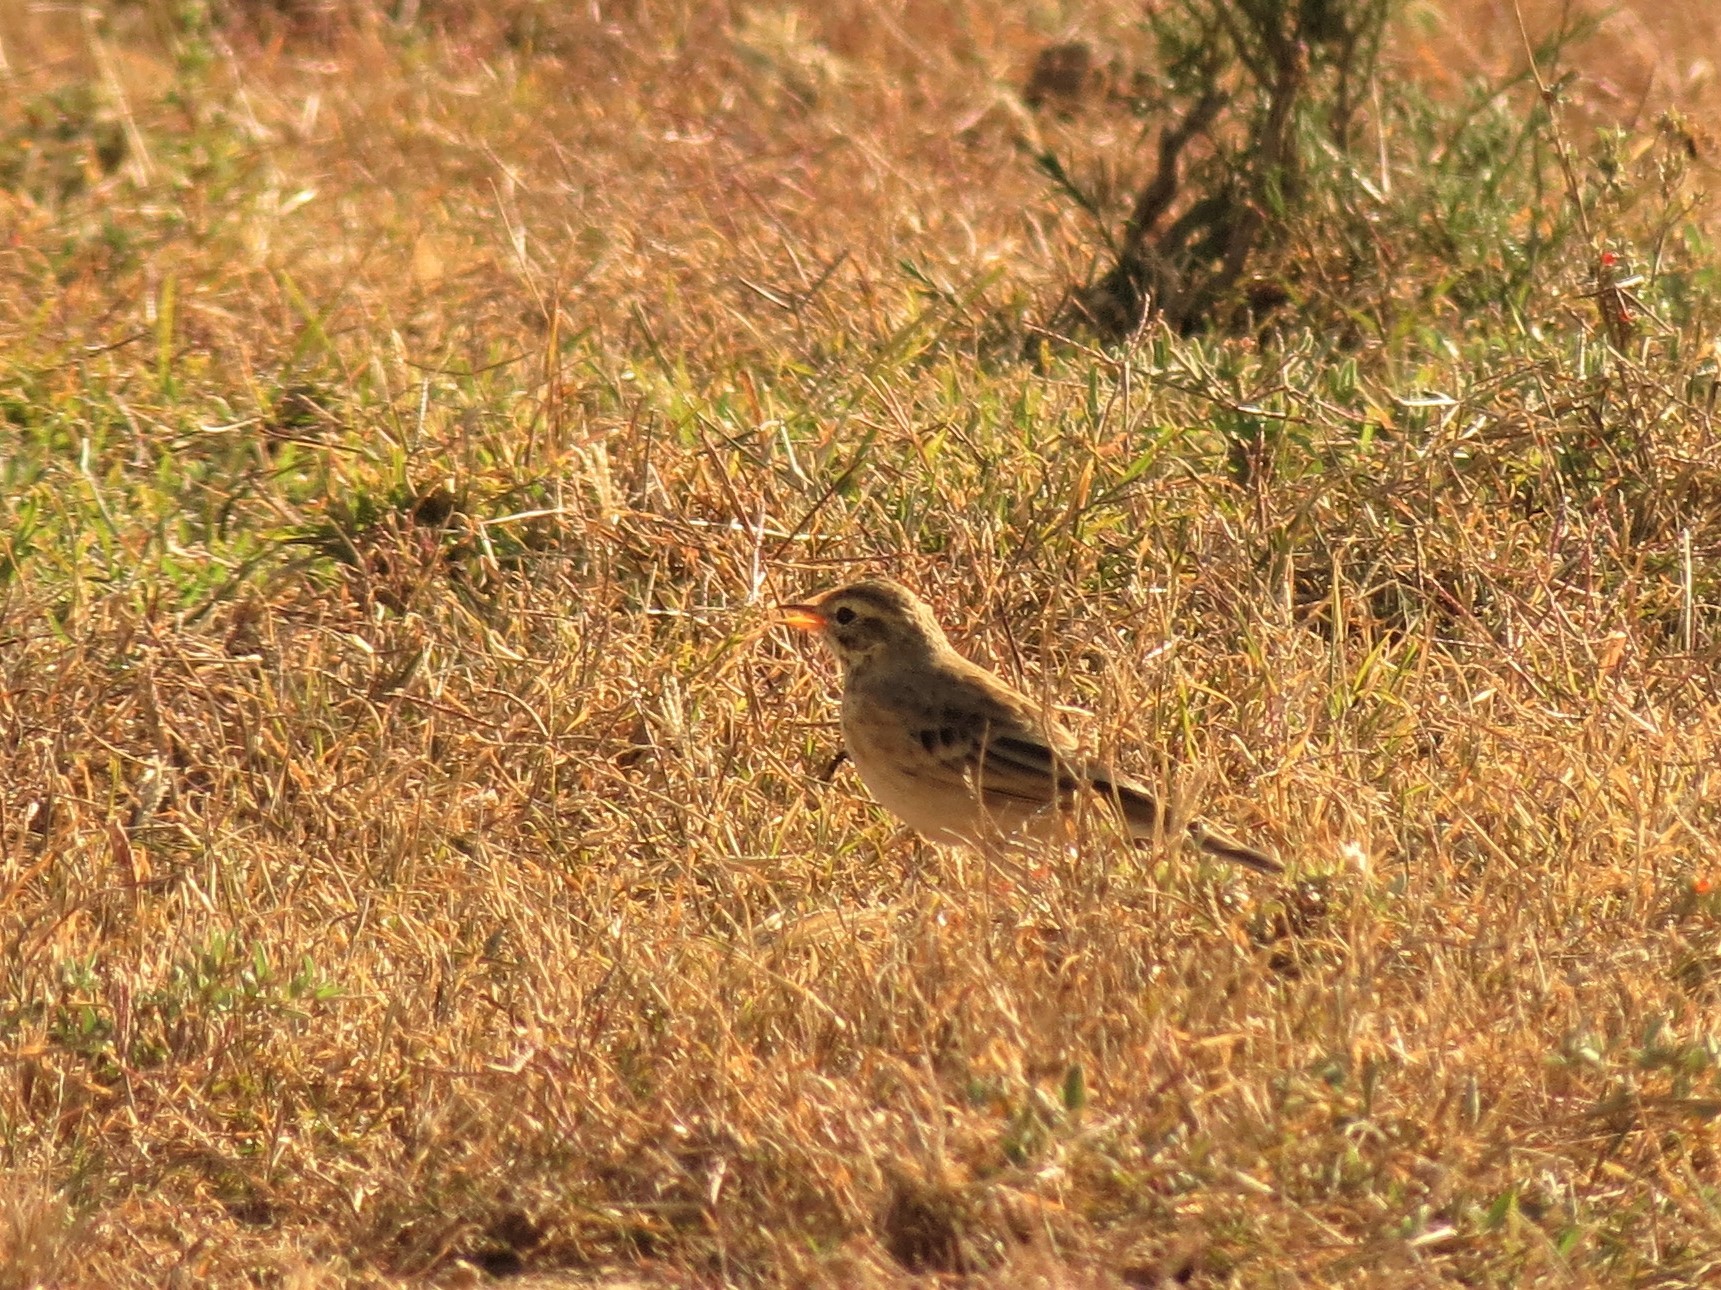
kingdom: Animalia
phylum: Chordata
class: Aves
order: Passeriformes
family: Motacillidae
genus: Anthus
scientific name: Anthus cinnamomeus
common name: African pipit
